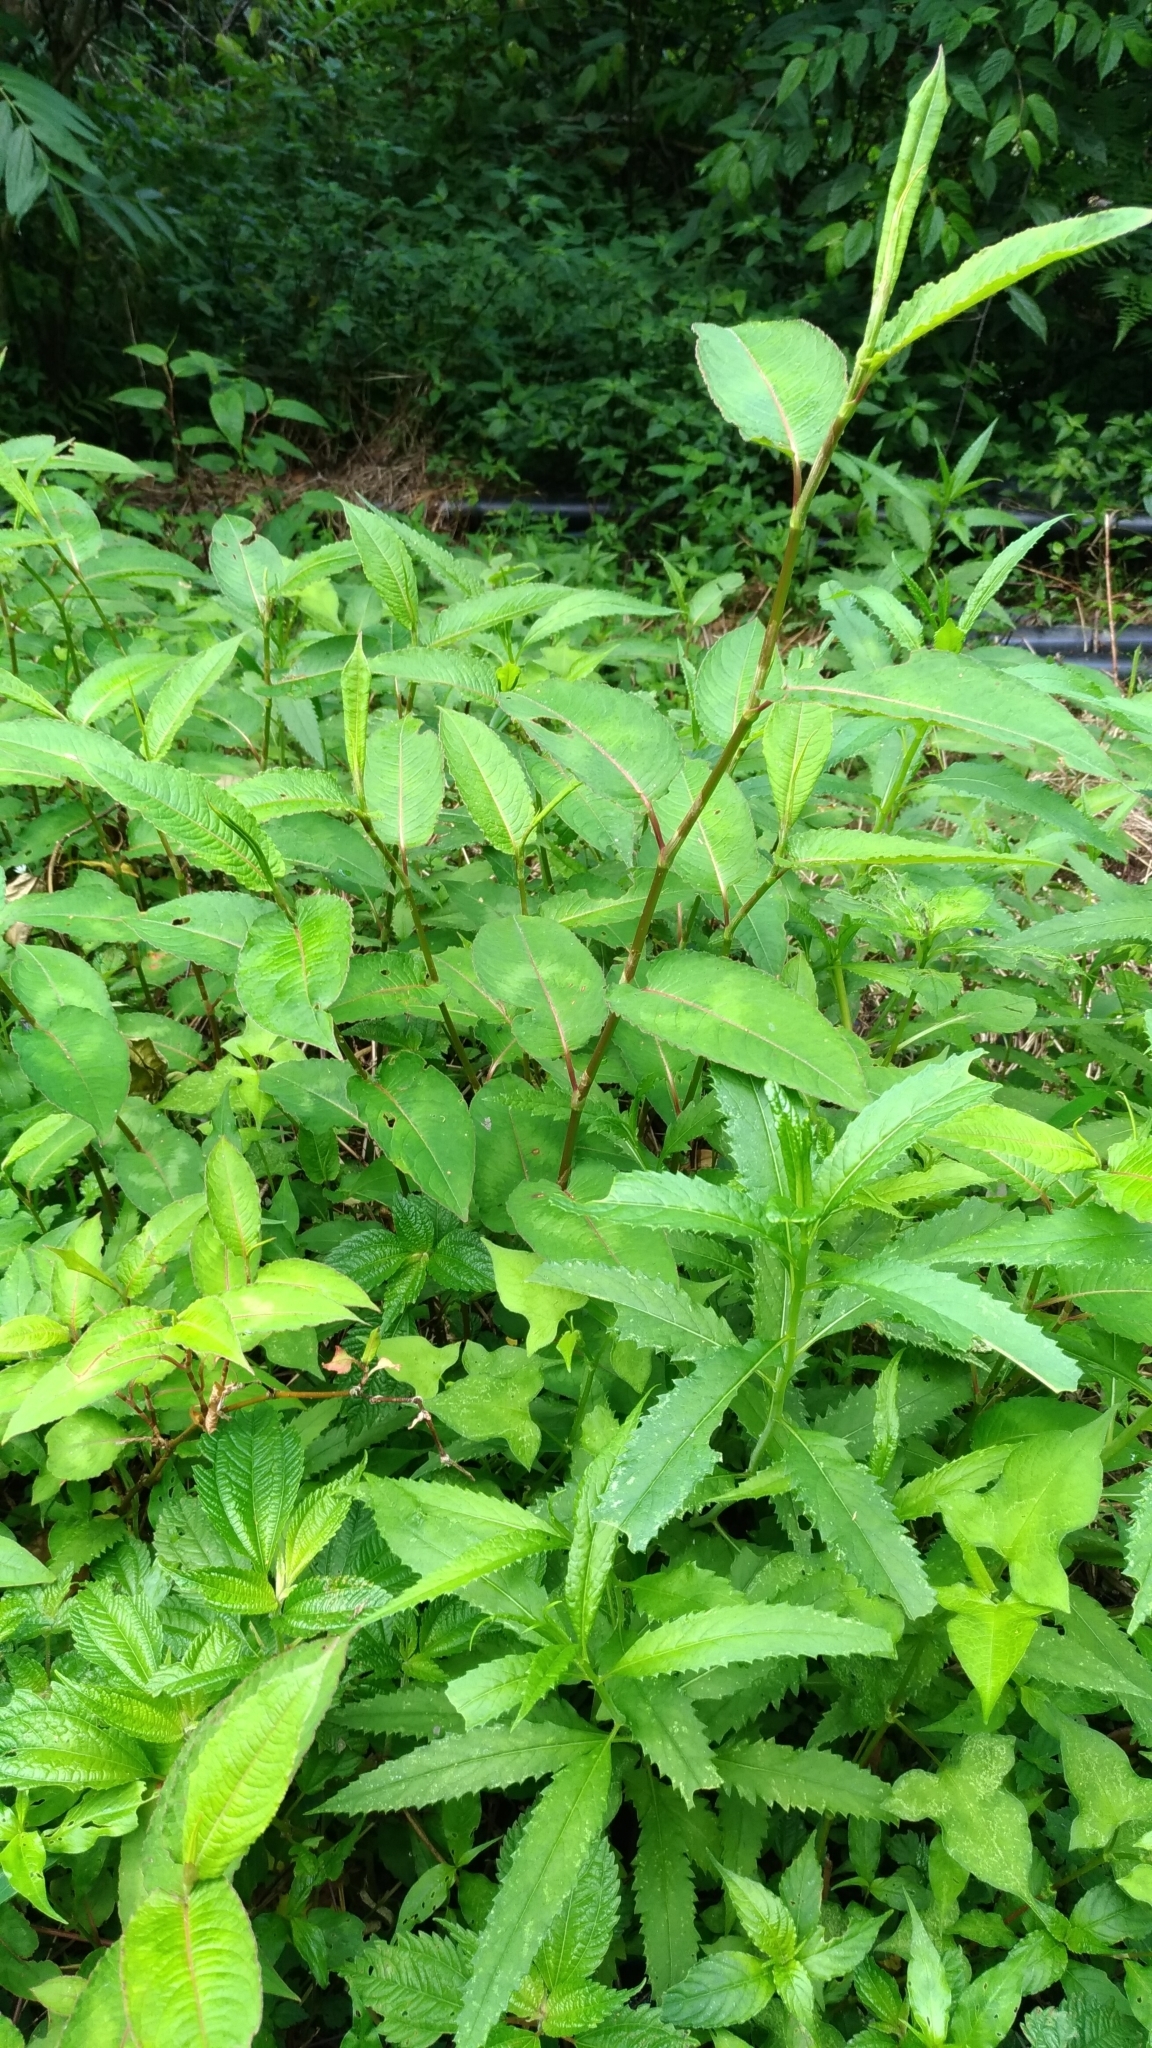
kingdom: Plantae
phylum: Tracheophyta
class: Magnoliopsida
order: Caryophyllales
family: Polygonaceae
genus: Persicaria
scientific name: Persicaria chinensis
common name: Chinese knotweed
